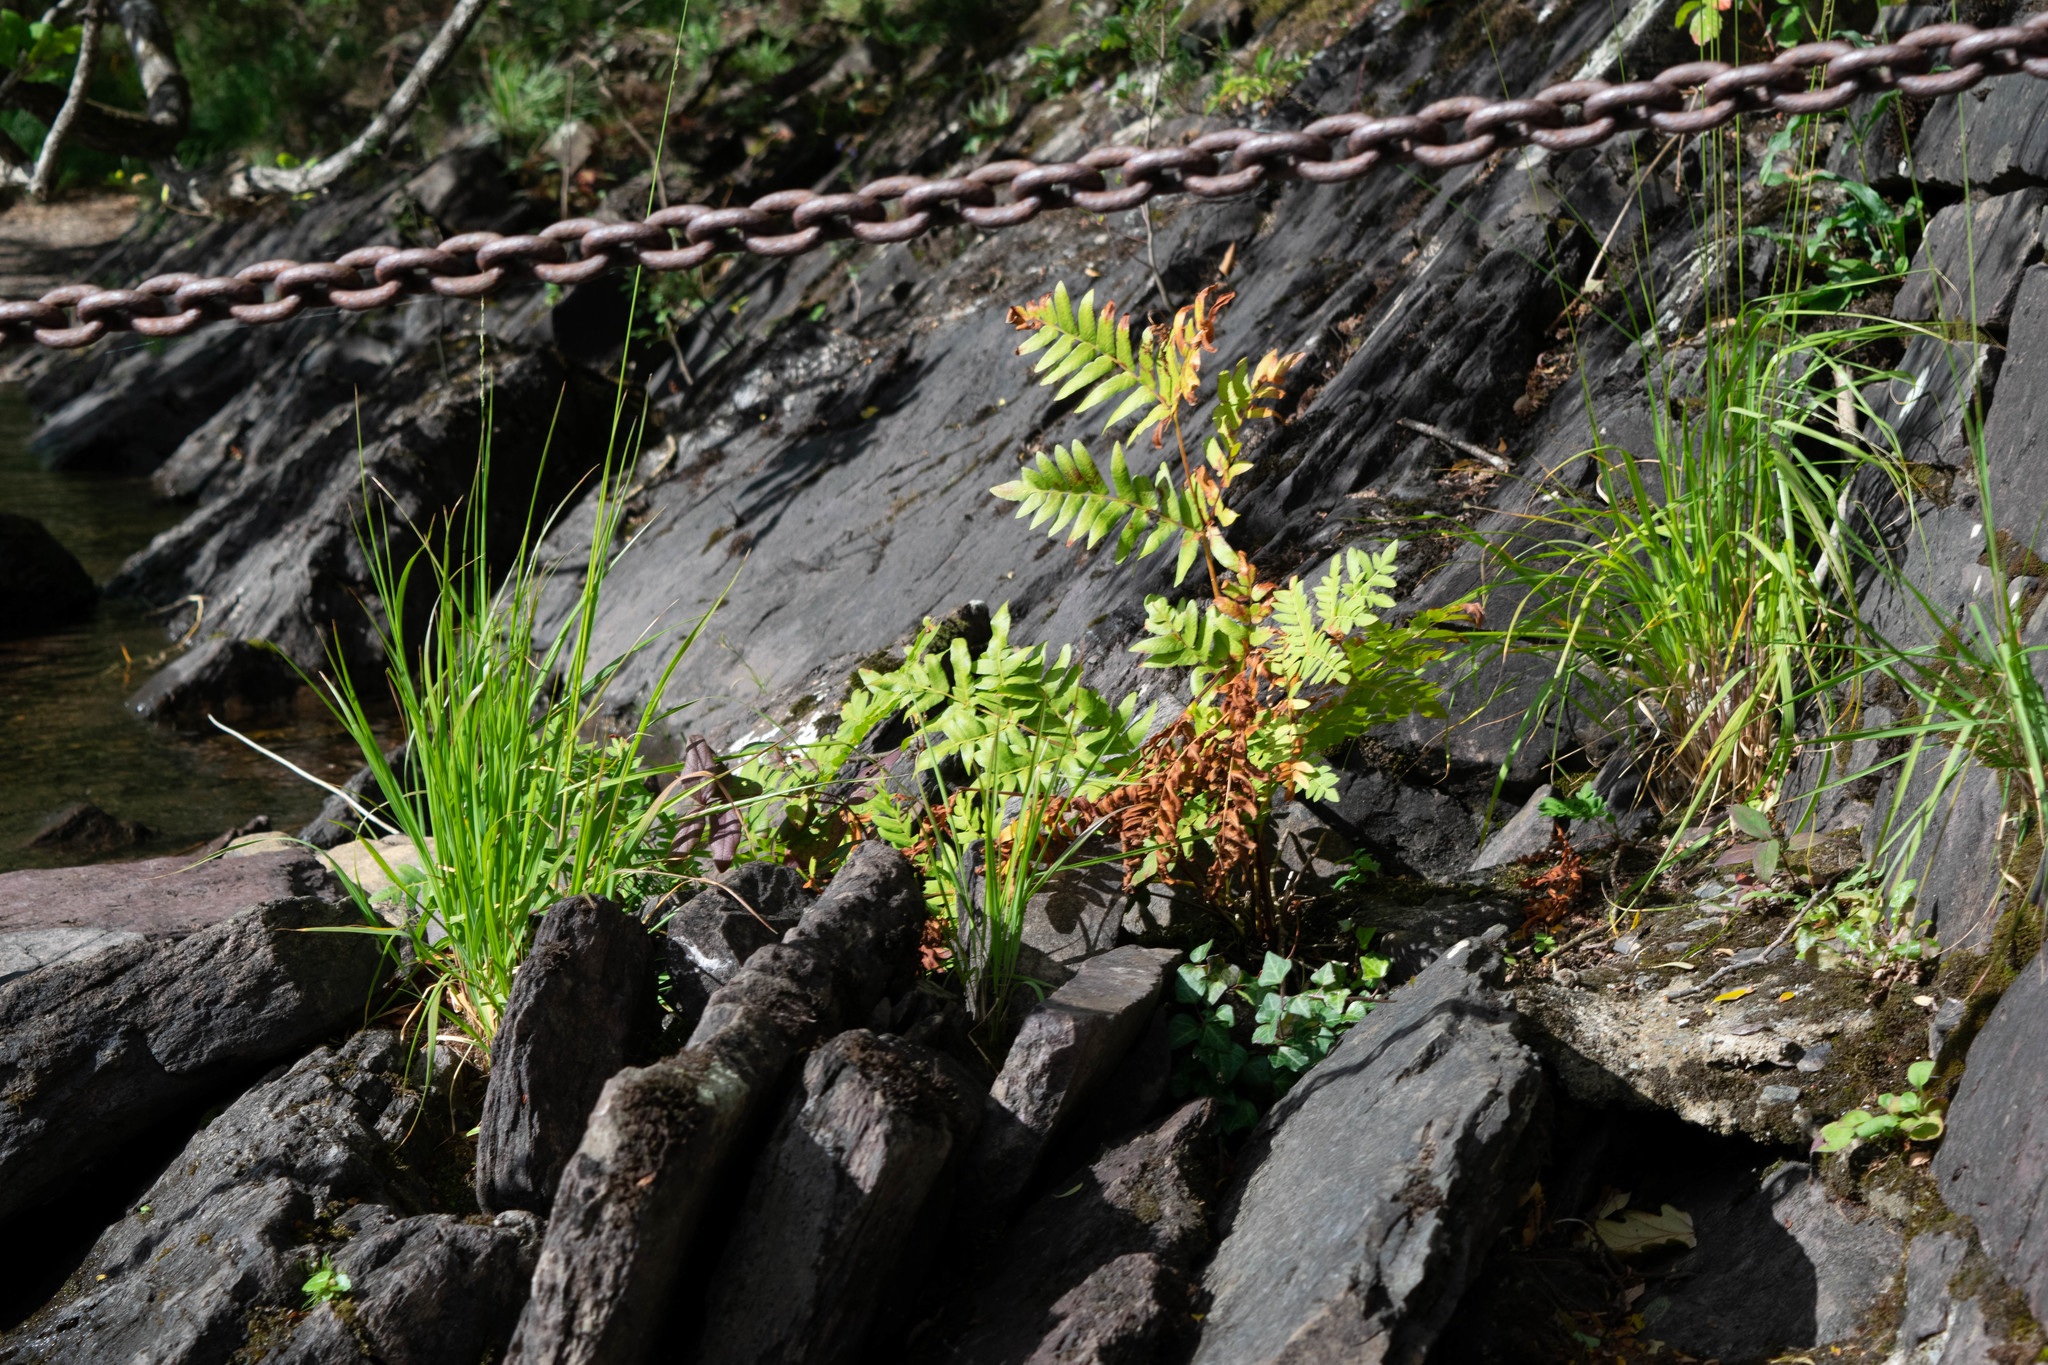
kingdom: Plantae
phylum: Tracheophyta
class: Magnoliopsida
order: Rosales
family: Rosaceae
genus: Sorbus
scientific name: Sorbus aucuparia
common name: Rowan
